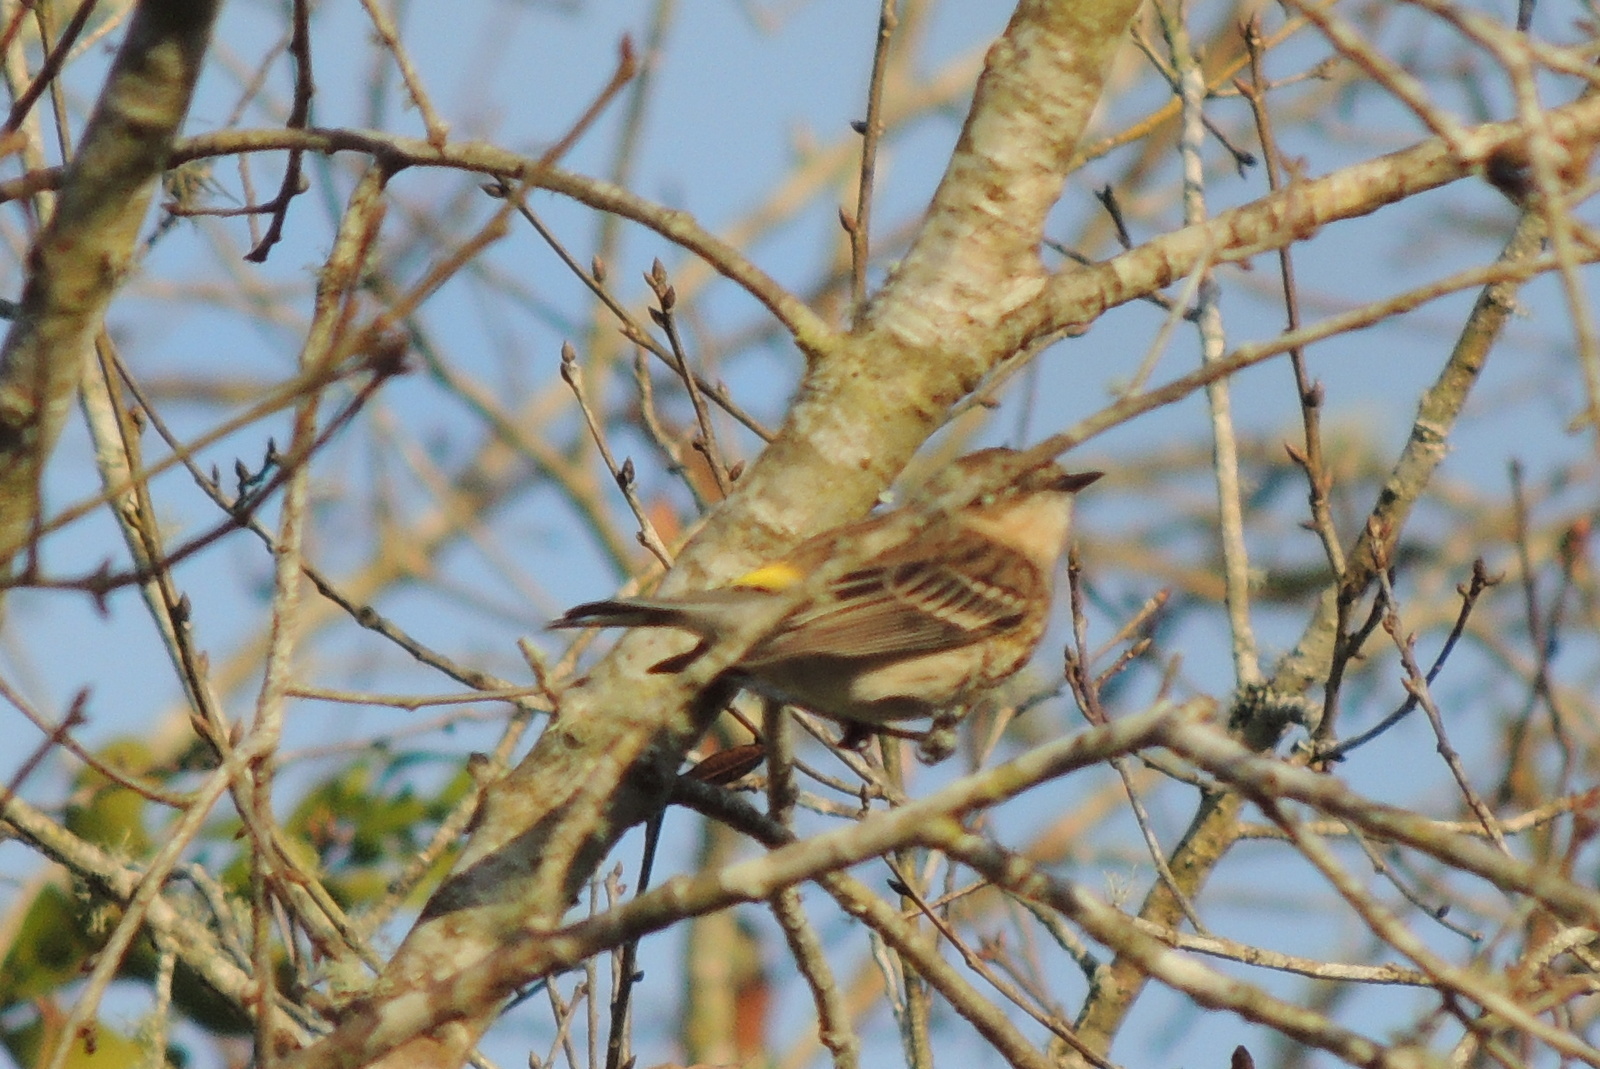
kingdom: Animalia
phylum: Chordata
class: Aves
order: Passeriformes
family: Parulidae
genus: Setophaga
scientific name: Setophaga coronata
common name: Myrtle warbler
